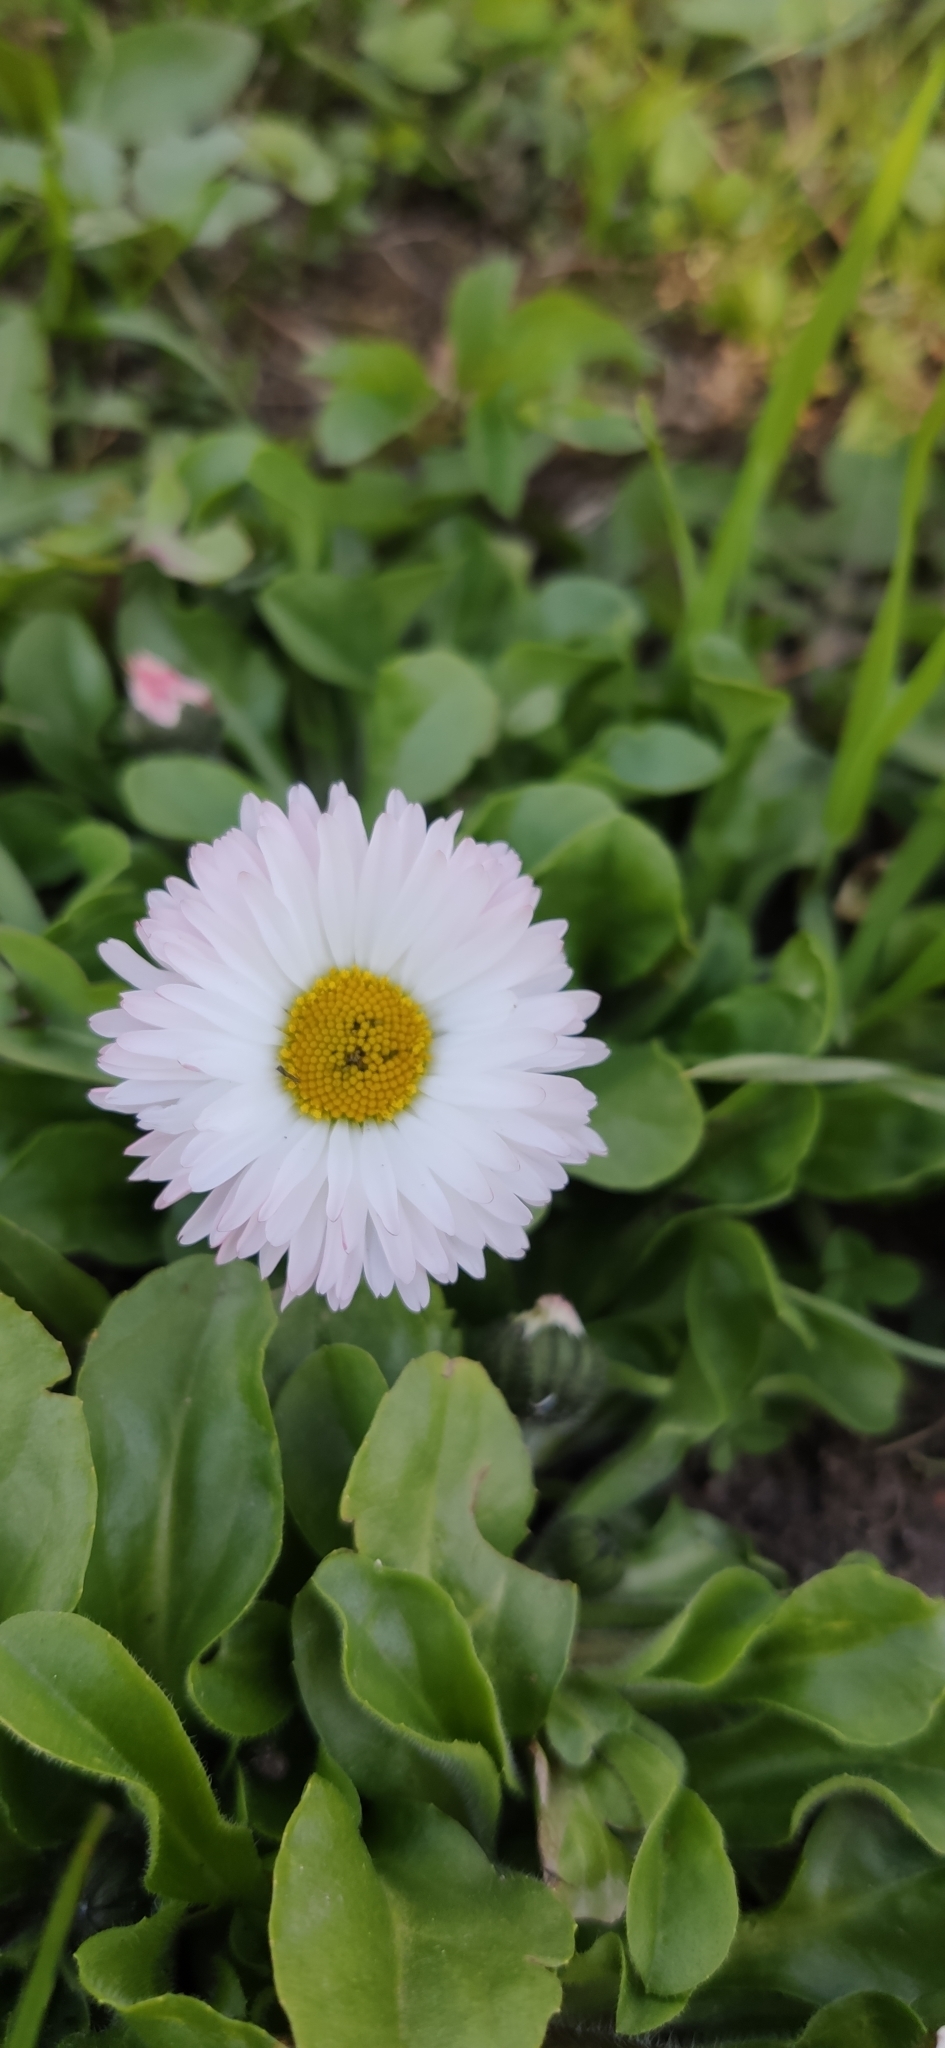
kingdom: Plantae
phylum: Tracheophyta
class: Magnoliopsida
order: Asterales
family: Asteraceae
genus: Bellis
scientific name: Bellis perennis
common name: Lawndaisy
